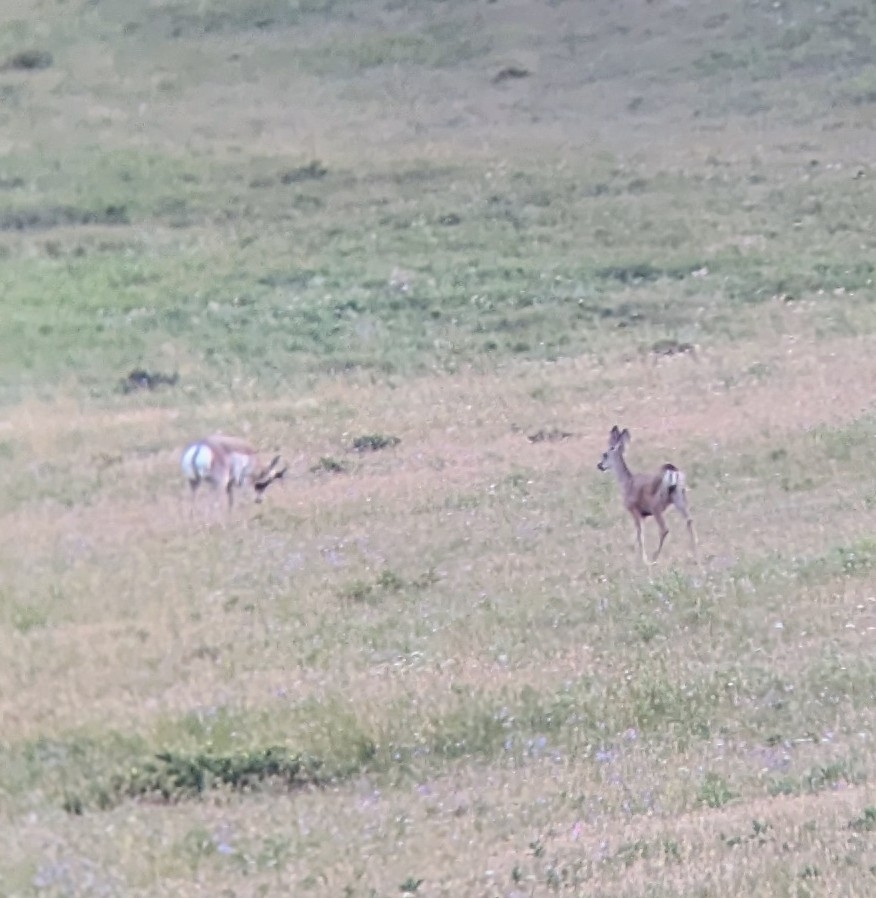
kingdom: Animalia
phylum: Chordata
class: Mammalia
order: Artiodactyla
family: Cervidae
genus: Odocoileus
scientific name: Odocoileus hemionus
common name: Mule deer
